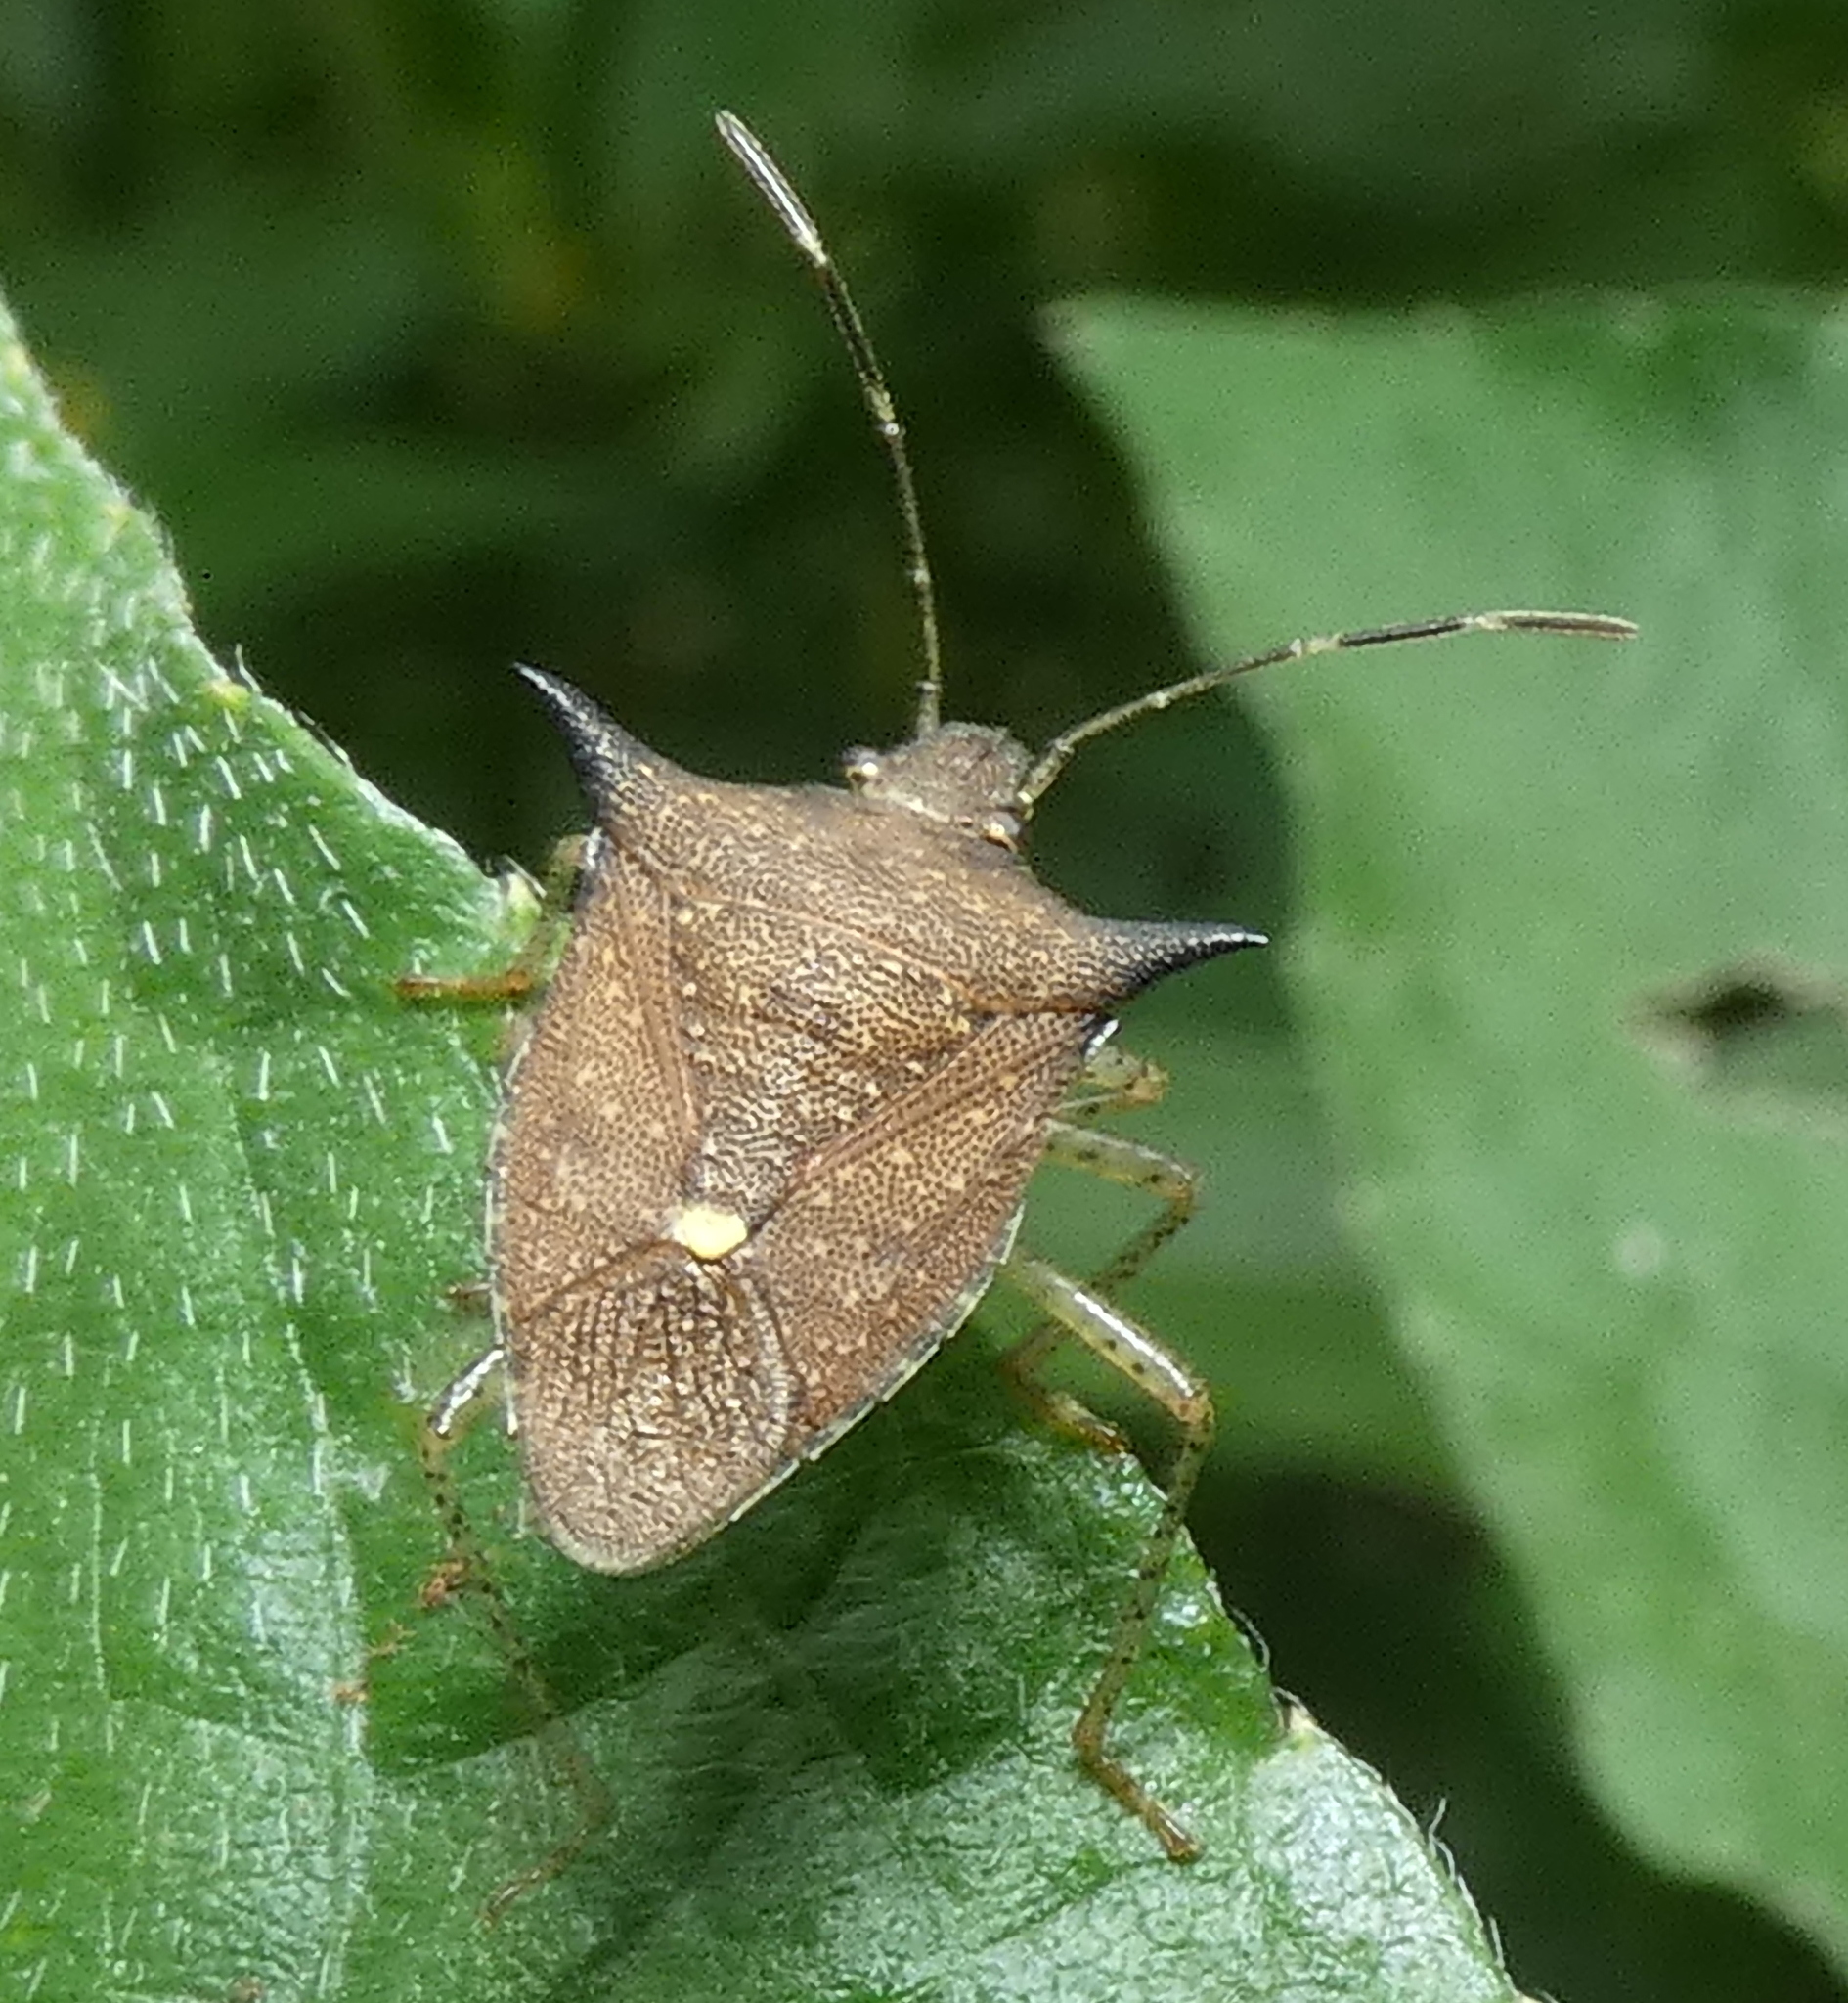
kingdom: Animalia
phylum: Arthropoda
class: Insecta
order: Hemiptera
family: Pentatomidae
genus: Euschistus
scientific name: Euschistus
